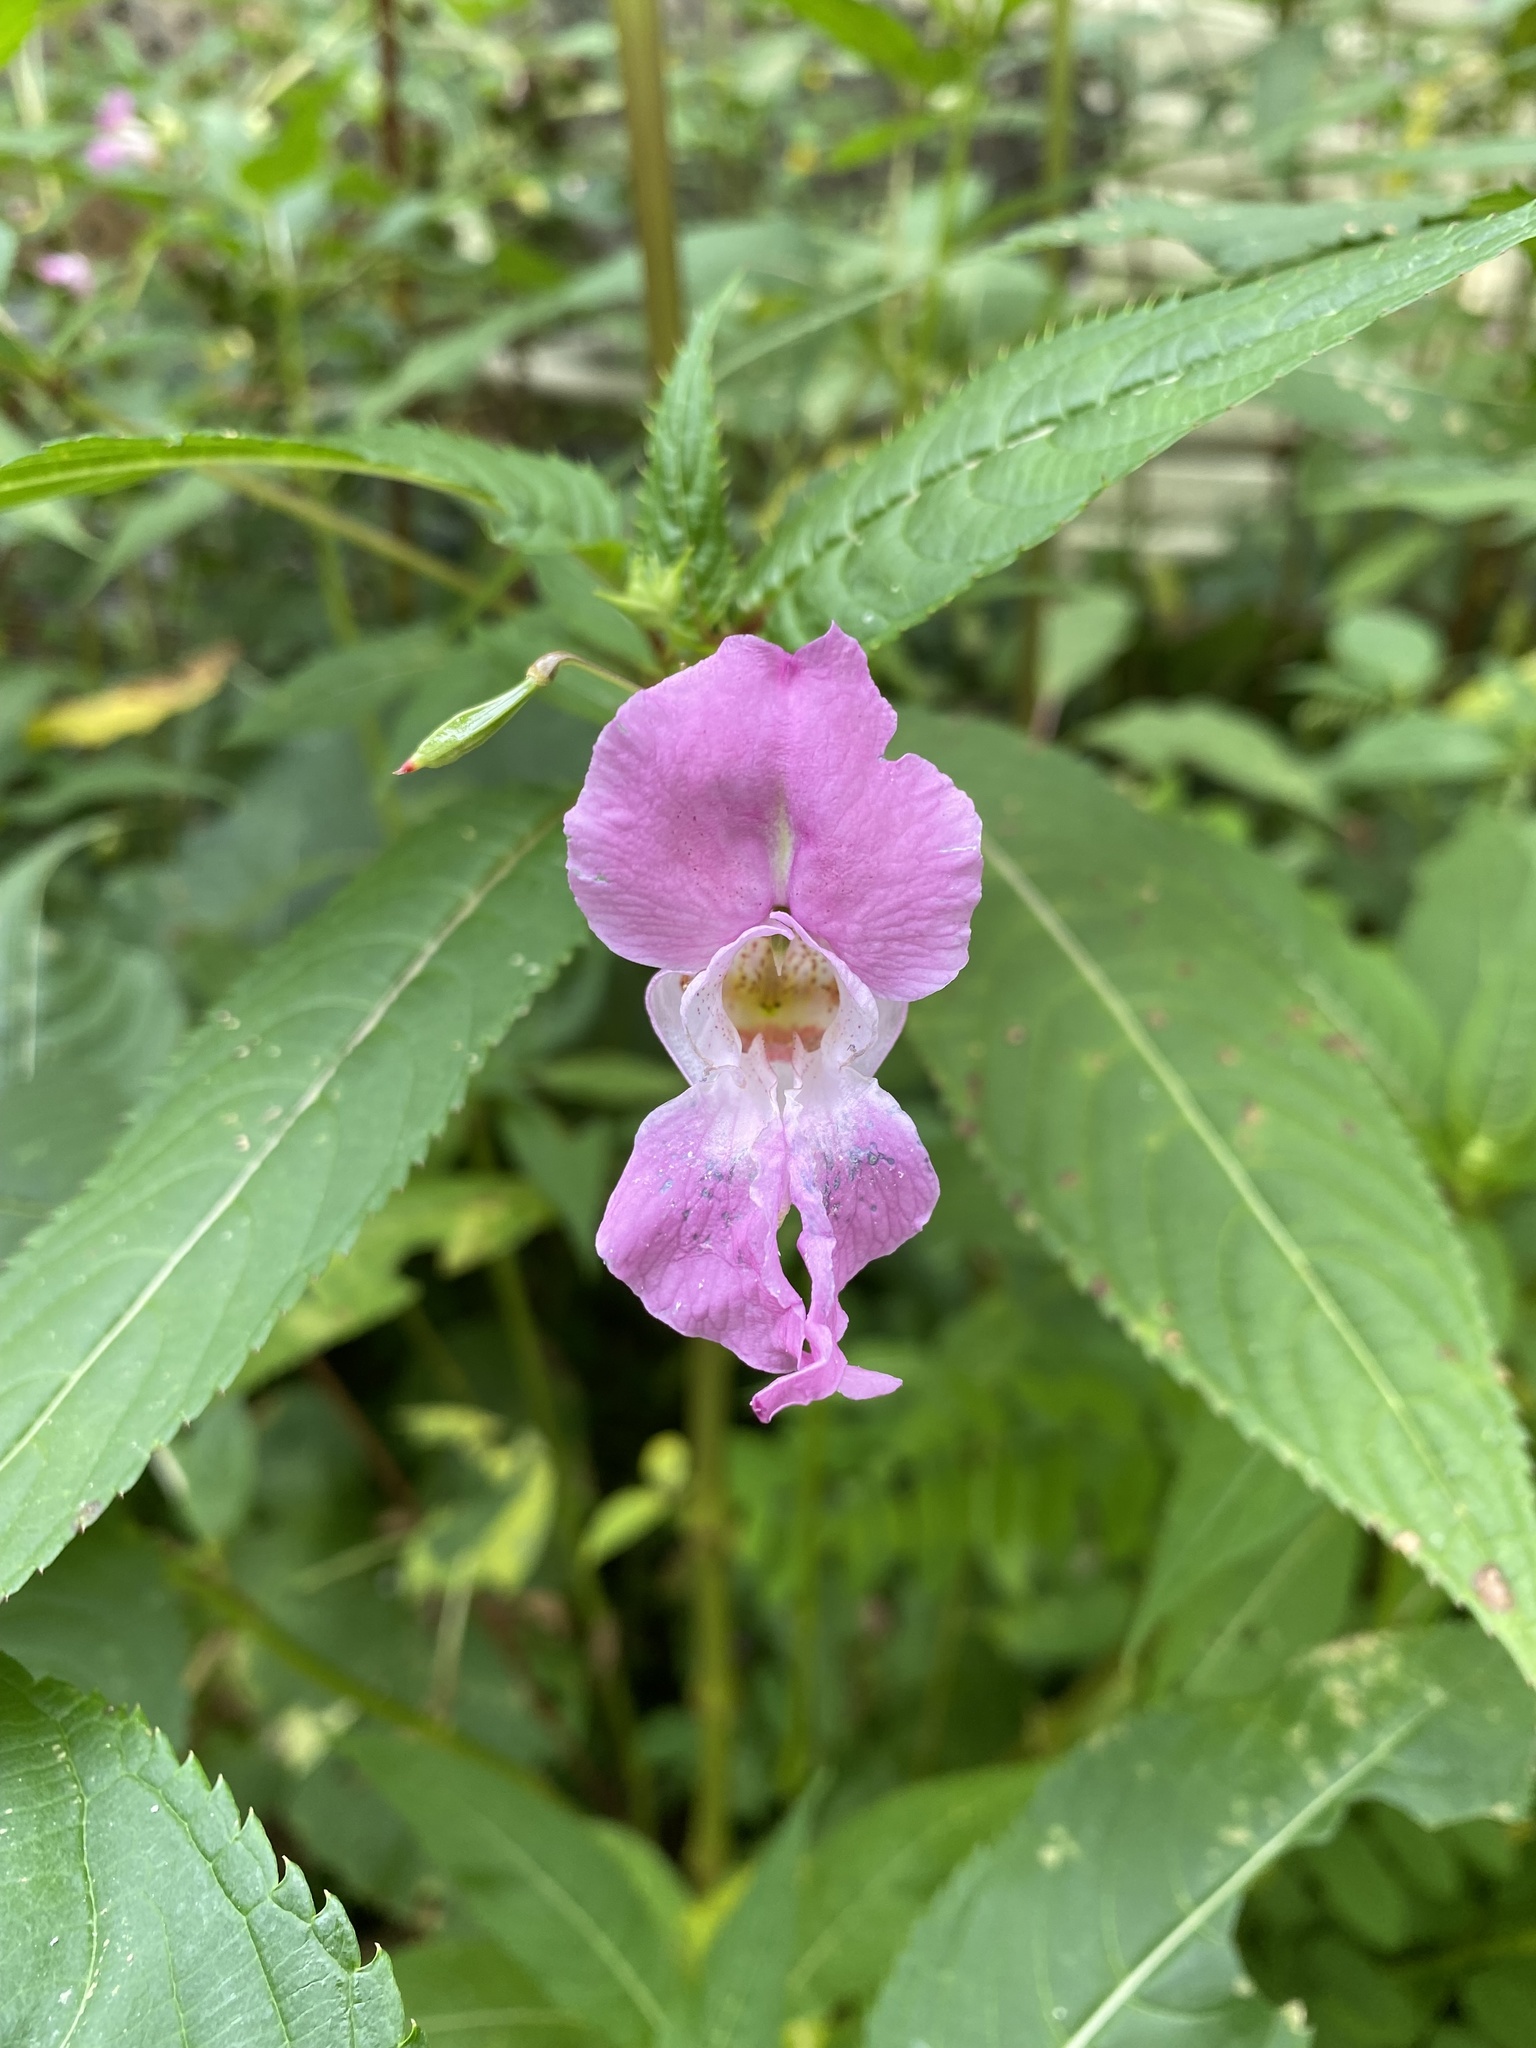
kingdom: Plantae
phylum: Tracheophyta
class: Magnoliopsida
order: Ericales
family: Balsaminaceae
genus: Impatiens
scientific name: Impatiens glandulifera
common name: Himalayan balsam
